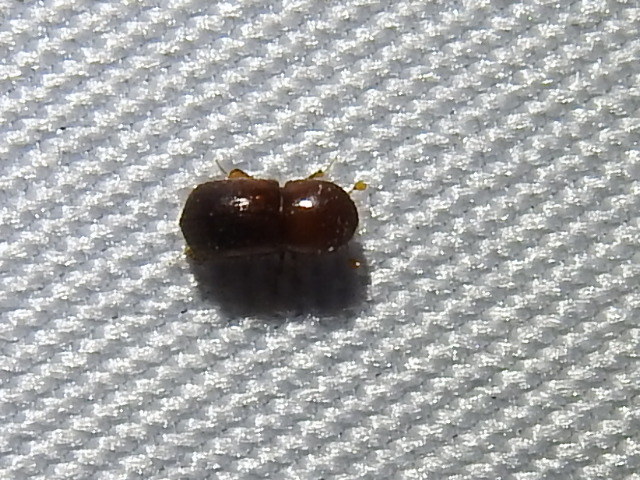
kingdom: Animalia
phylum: Arthropoda
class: Insecta
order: Coleoptera
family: Curculionidae
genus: Xylosandrus
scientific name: Xylosandrus crassiusculus
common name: Granulate ambrosia beetle
